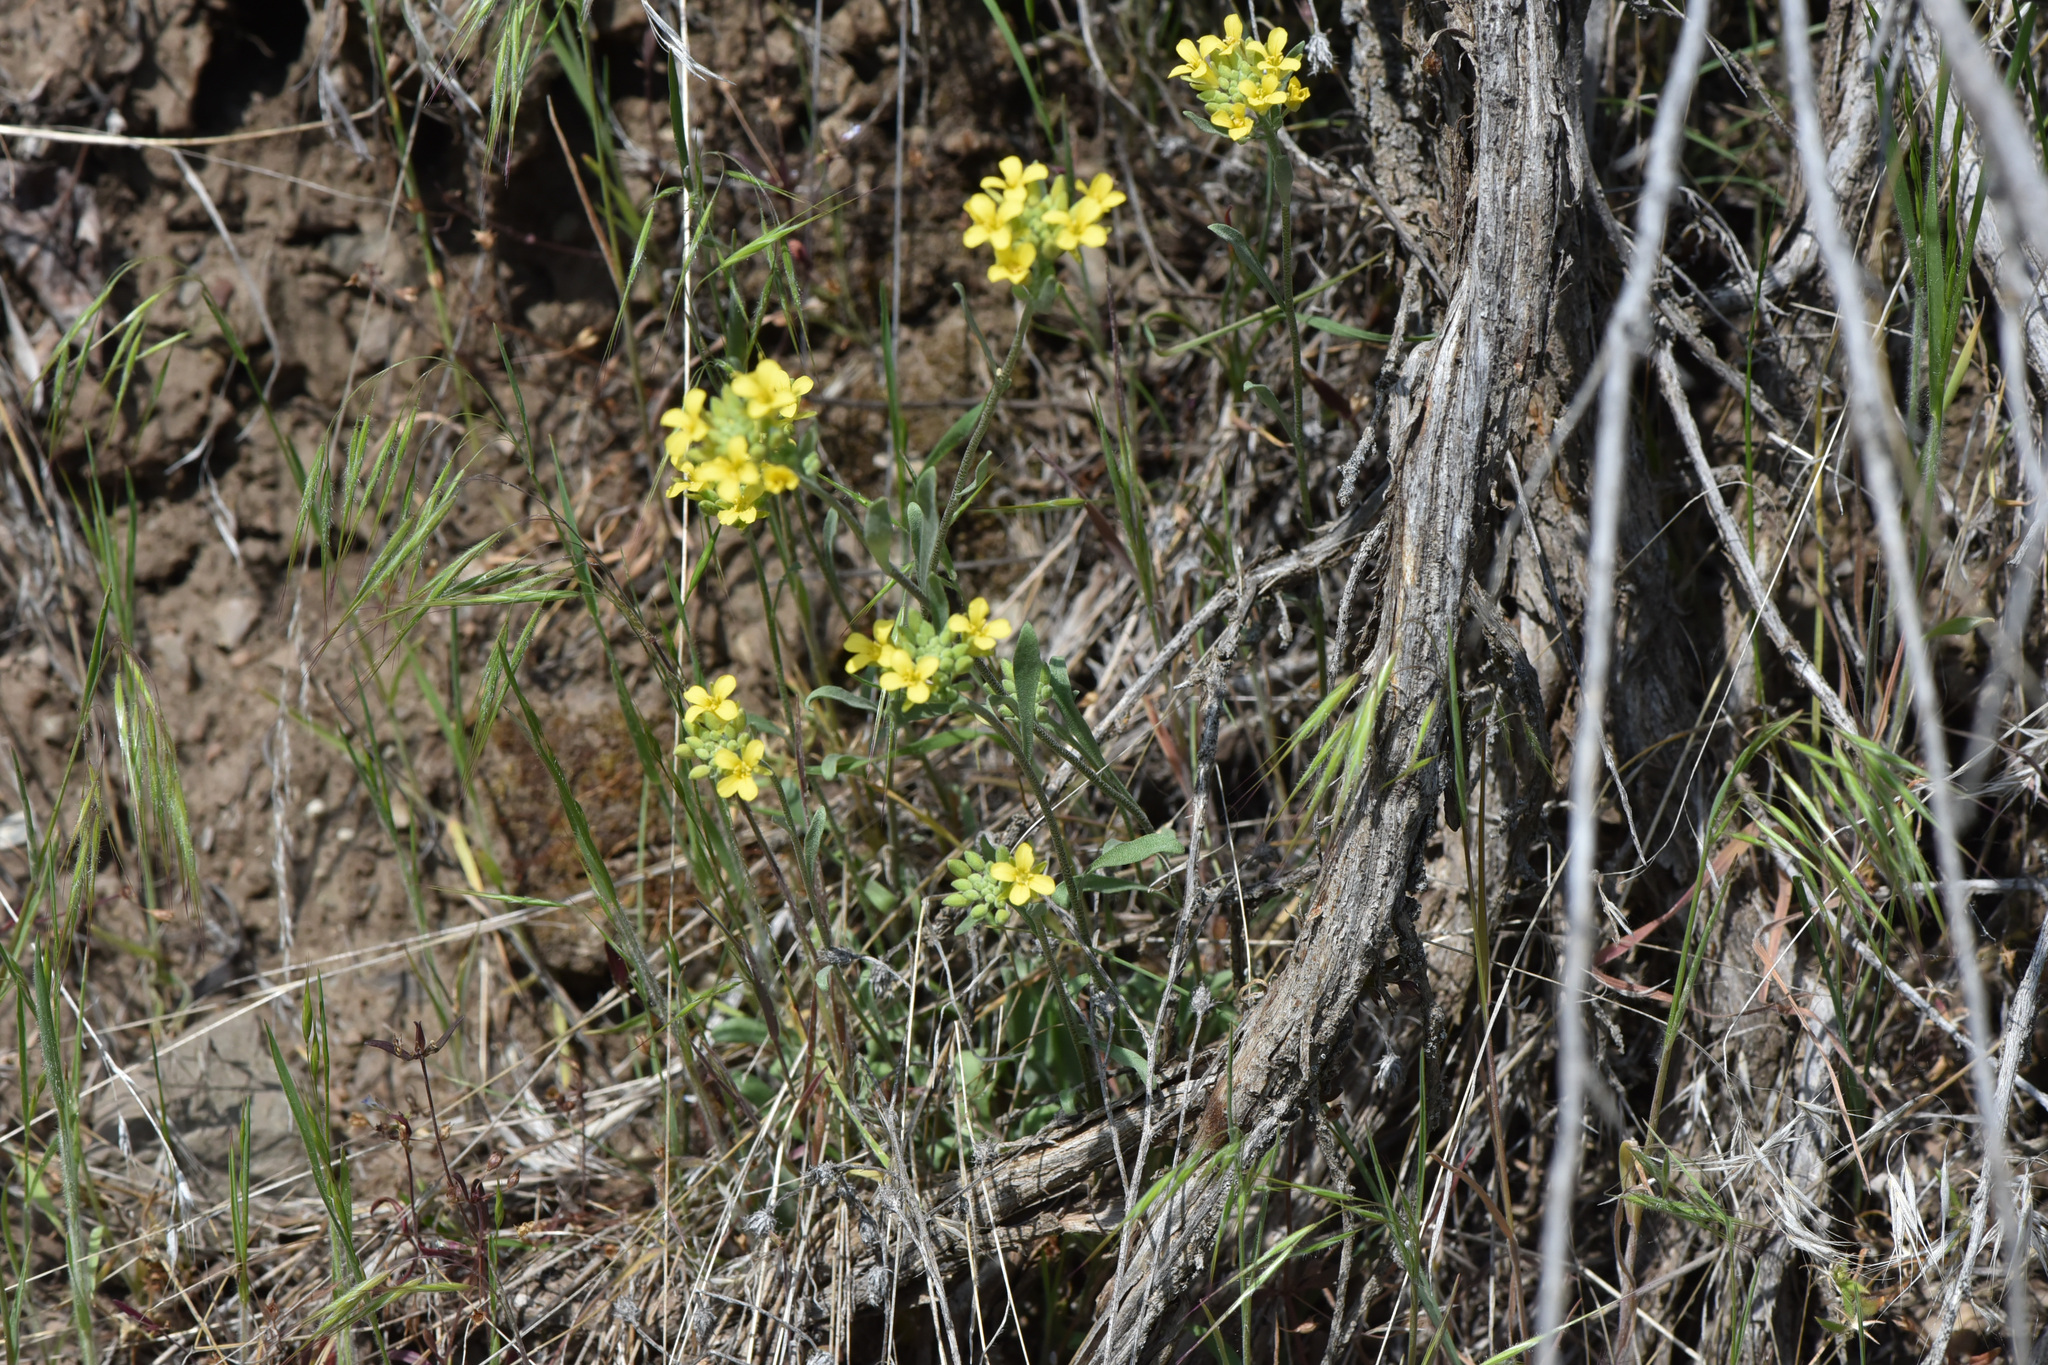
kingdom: Plantae
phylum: Tracheophyta
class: Magnoliopsida
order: Brassicales
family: Brassicaceae
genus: Physaria
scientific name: Physaria douglasii
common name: Douglas's bladderpod
